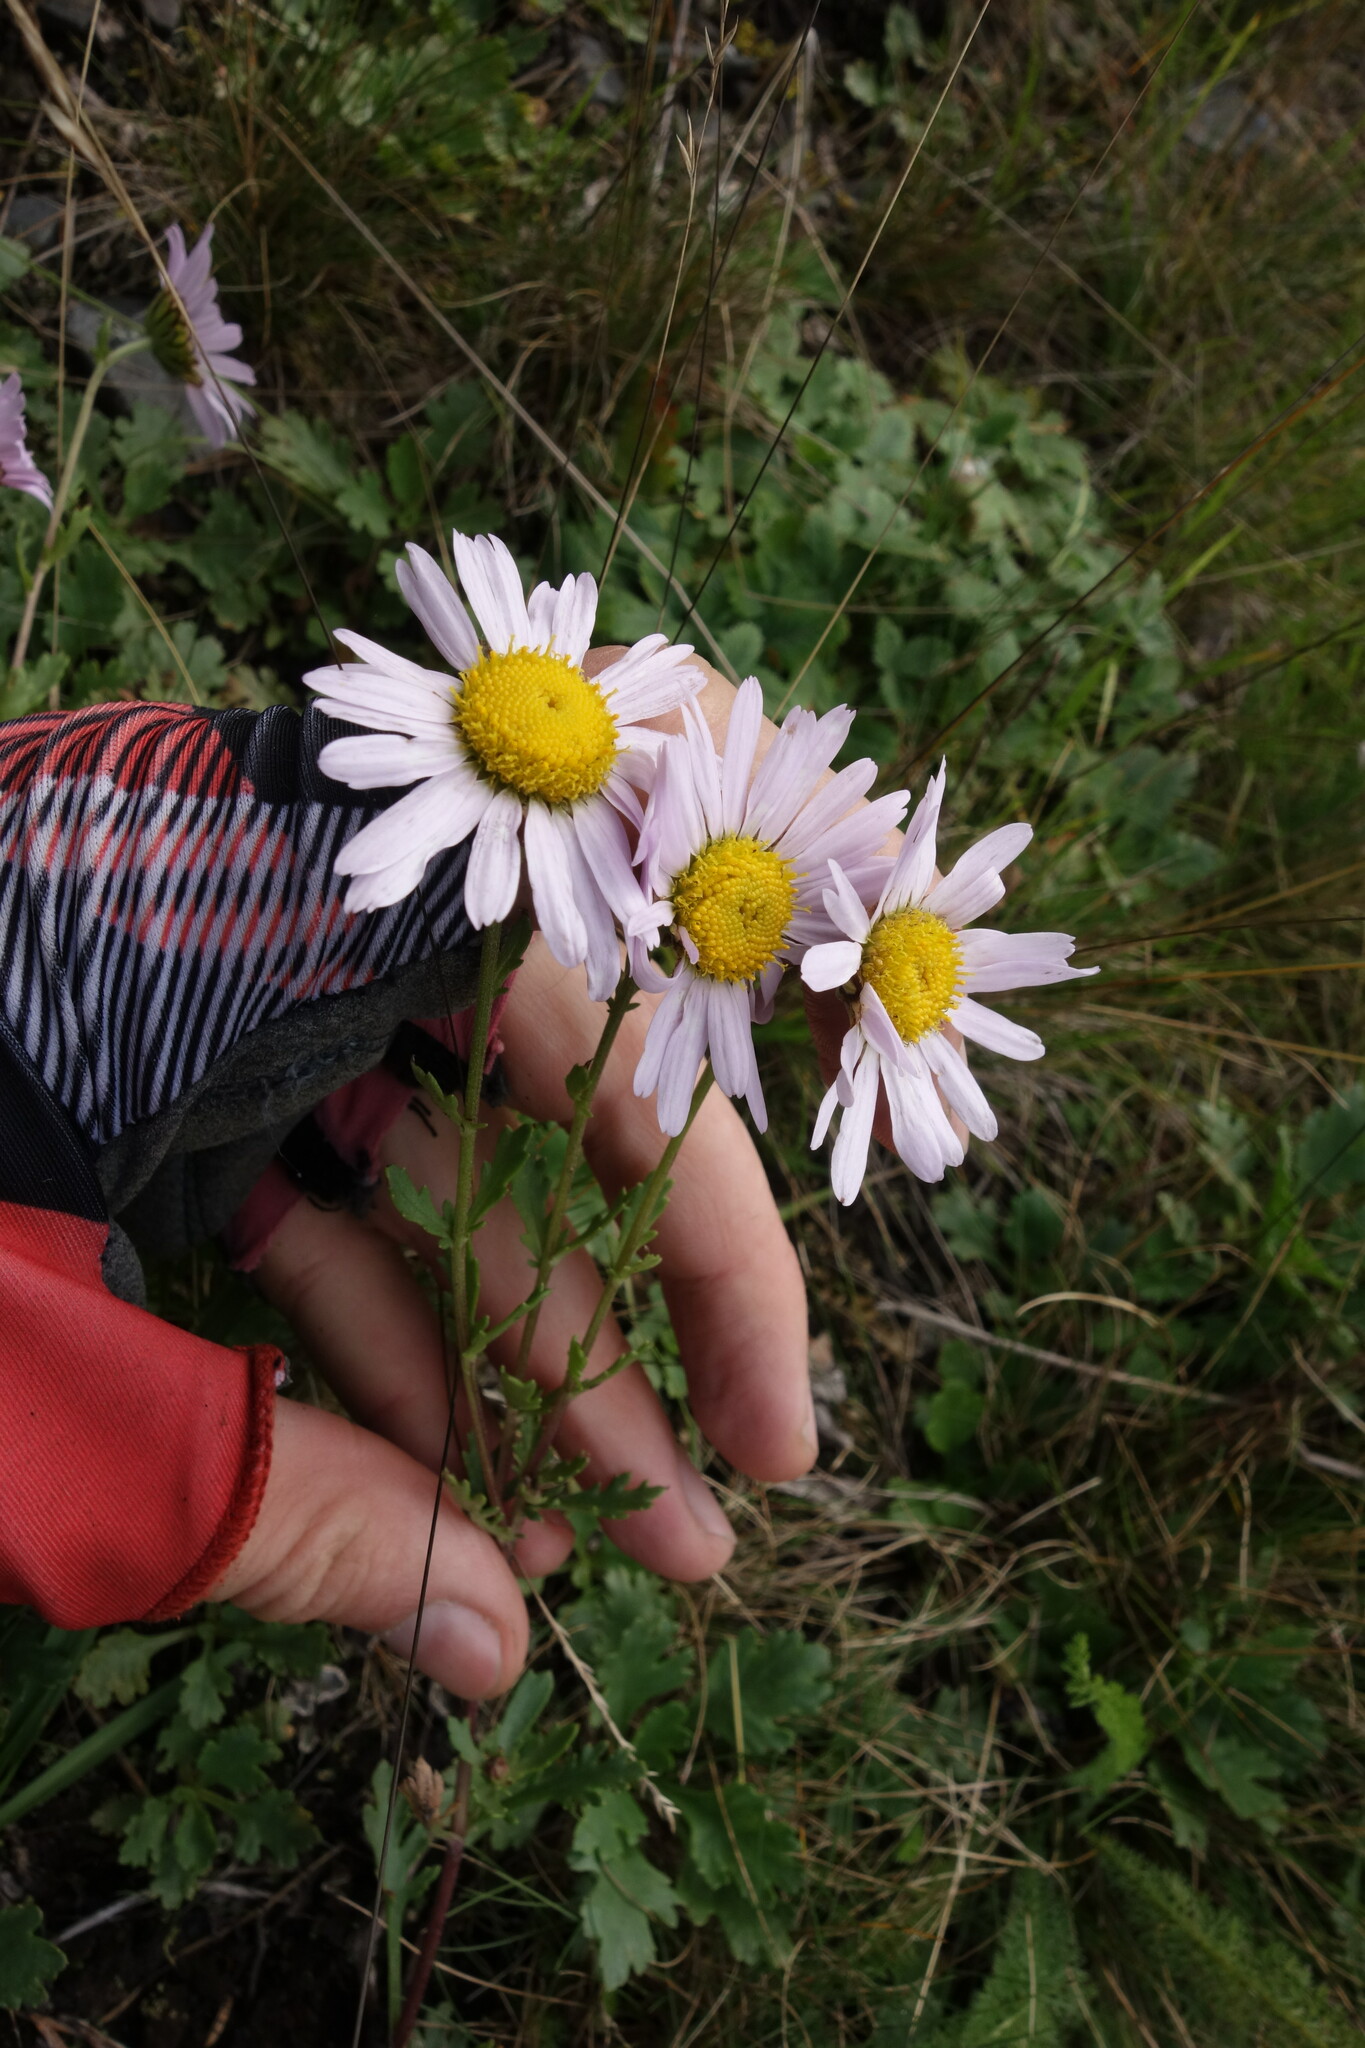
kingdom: Plantae
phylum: Tracheophyta
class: Magnoliopsida
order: Asterales
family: Asteraceae
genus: Chrysanthemum
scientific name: Chrysanthemum zawadzkii
